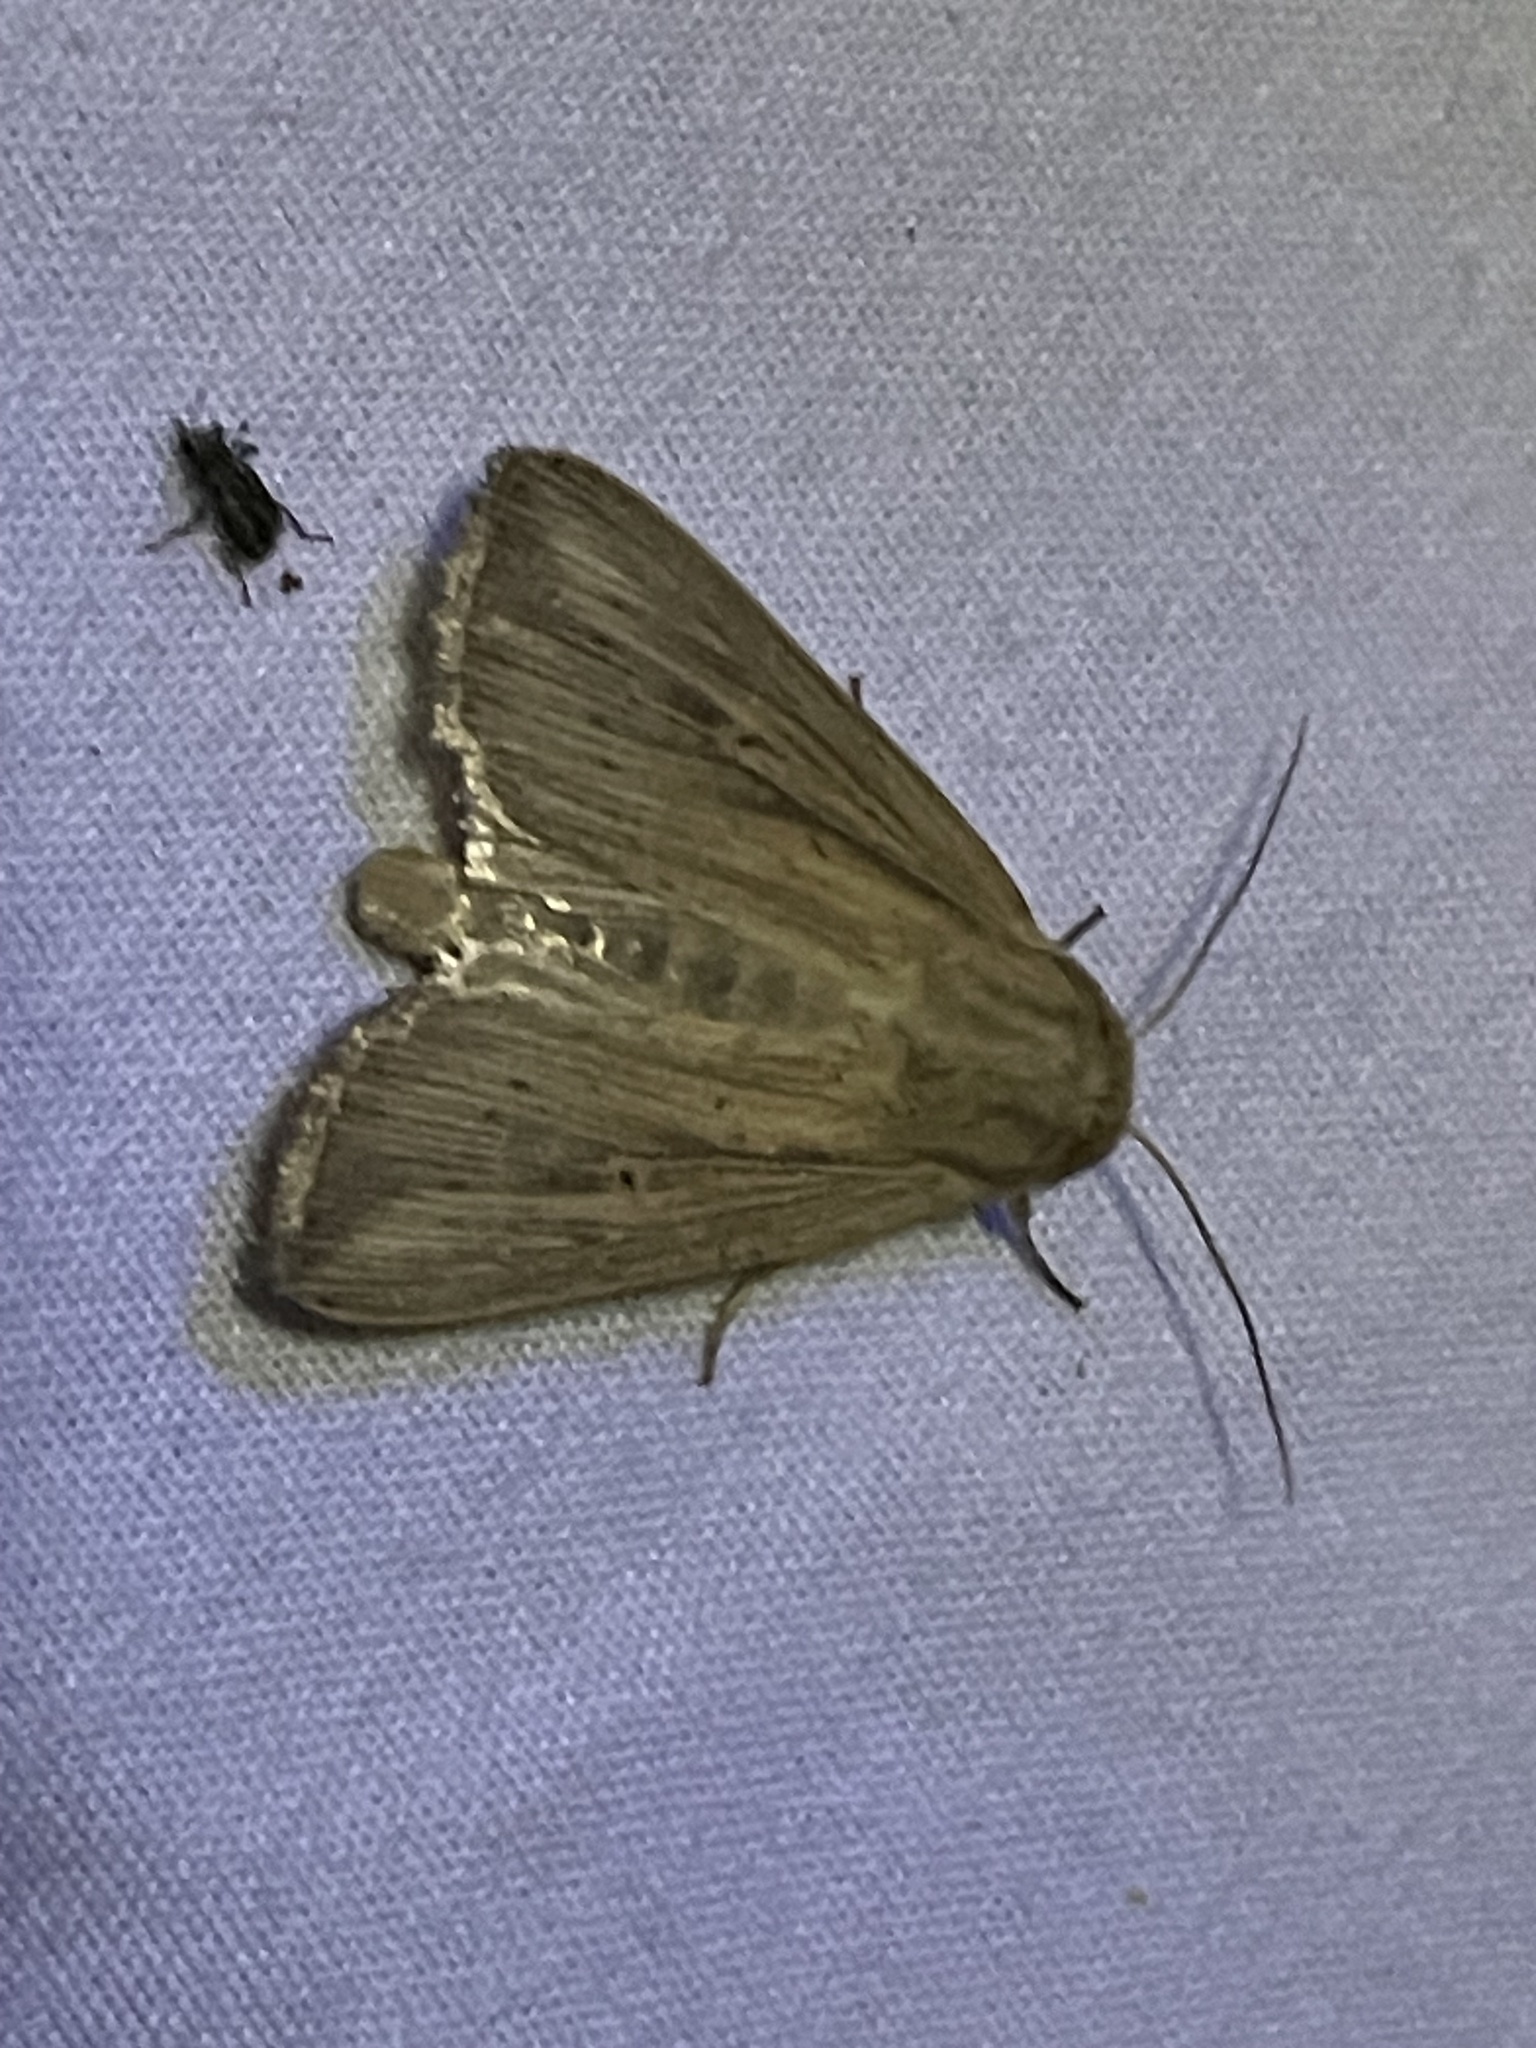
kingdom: Animalia
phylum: Arthropoda
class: Insecta
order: Lepidoptera
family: Noctuidae
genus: Leucania
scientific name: Leucania linda
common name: Linda's wainscot
